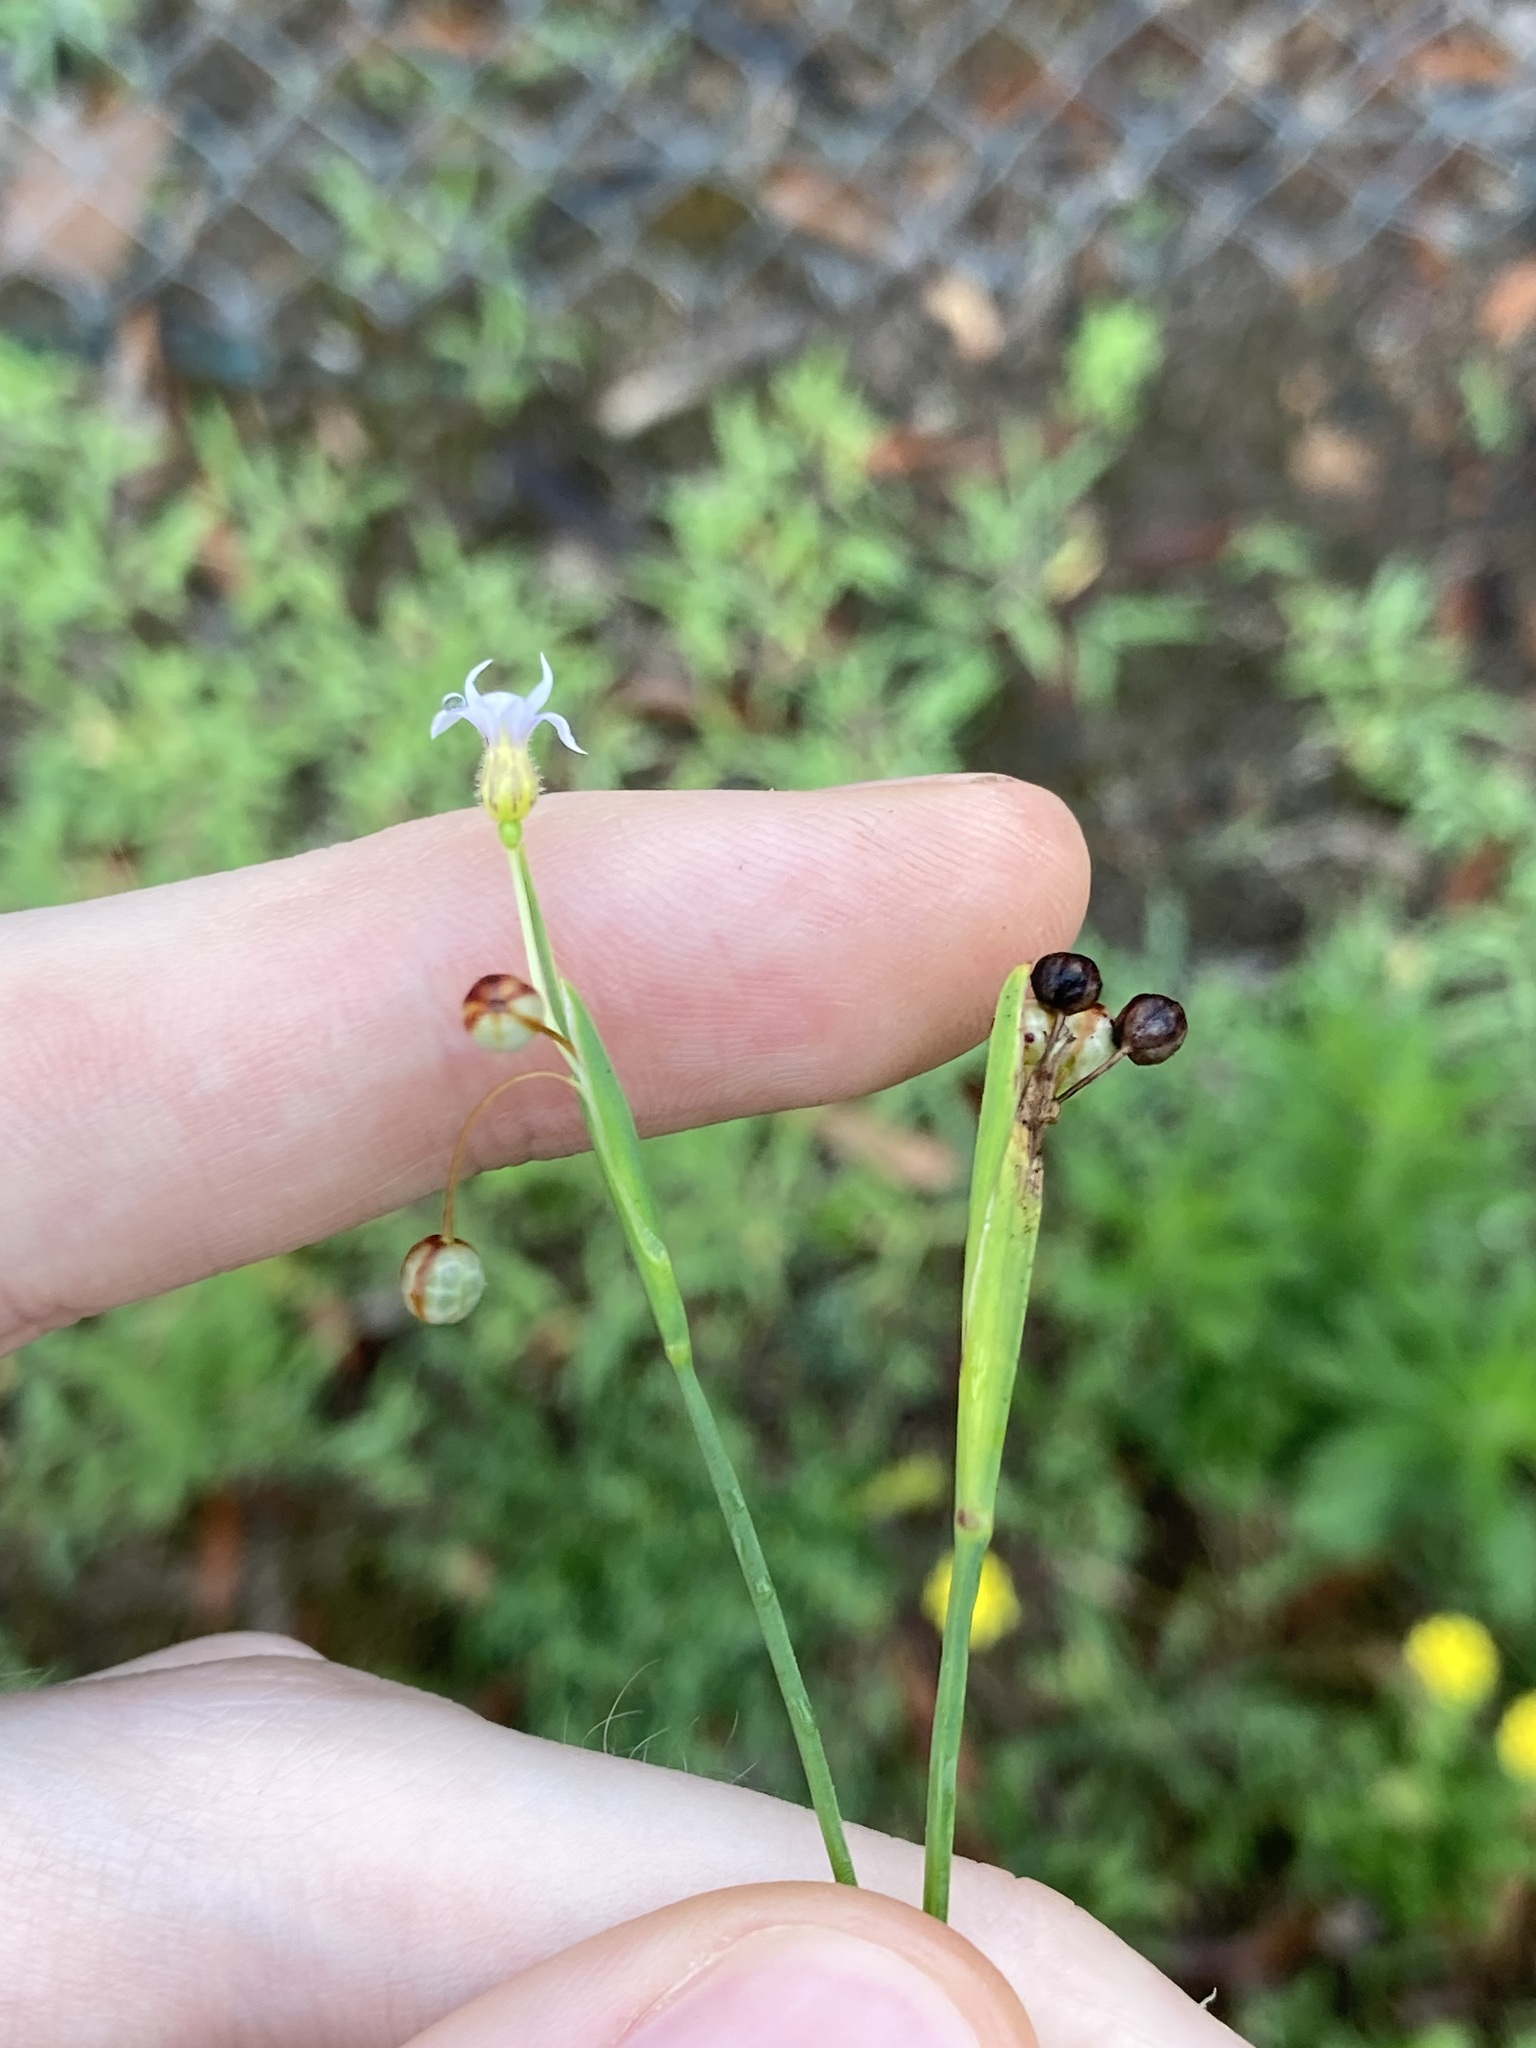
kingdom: Plantae
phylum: Tracheophyta
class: Liliopsida
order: Asparagales
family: Iridaceae
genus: Sisyrinchium
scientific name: Sisyrinchium micranthum
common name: Bermuda pigroot
